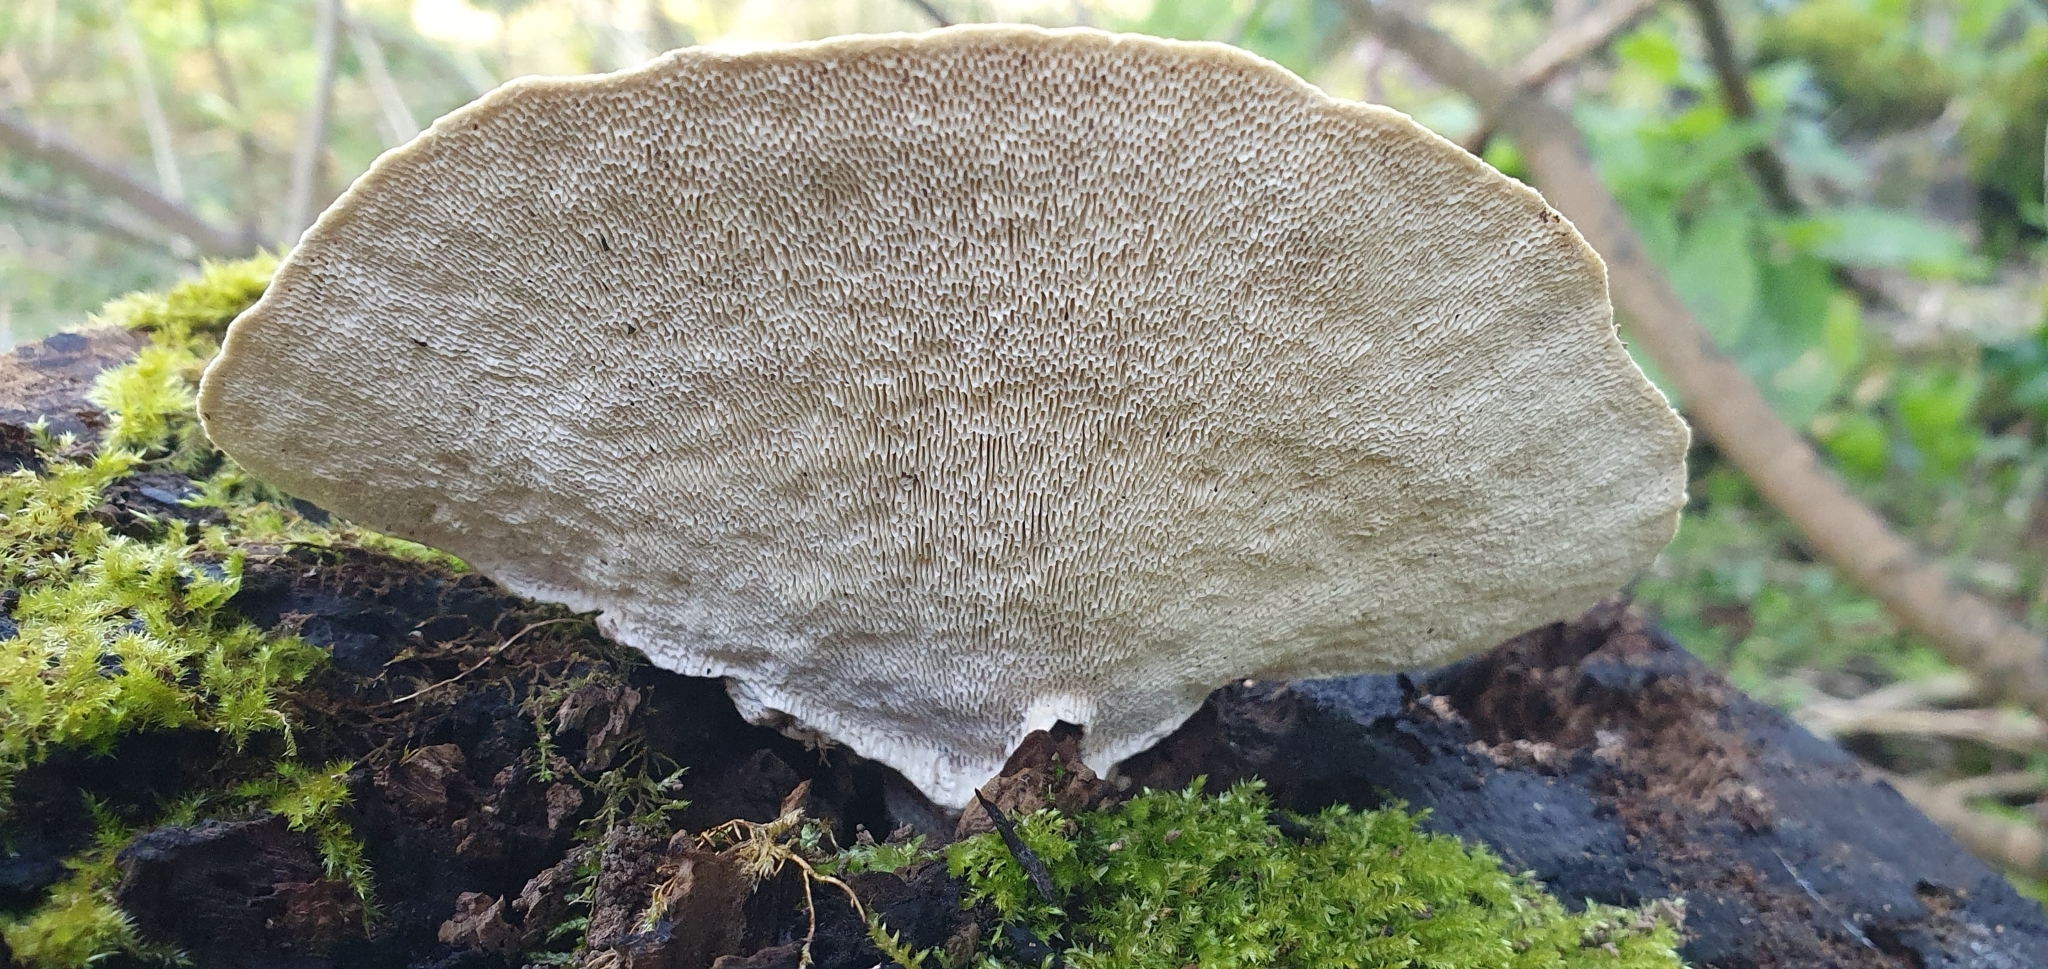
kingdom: Fungi
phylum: Basidiomycota
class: Agaricomycetes
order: Polyporales
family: Polyporaceae
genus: Trametes
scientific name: Trametes gibbosa
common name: Lumpy bracket
